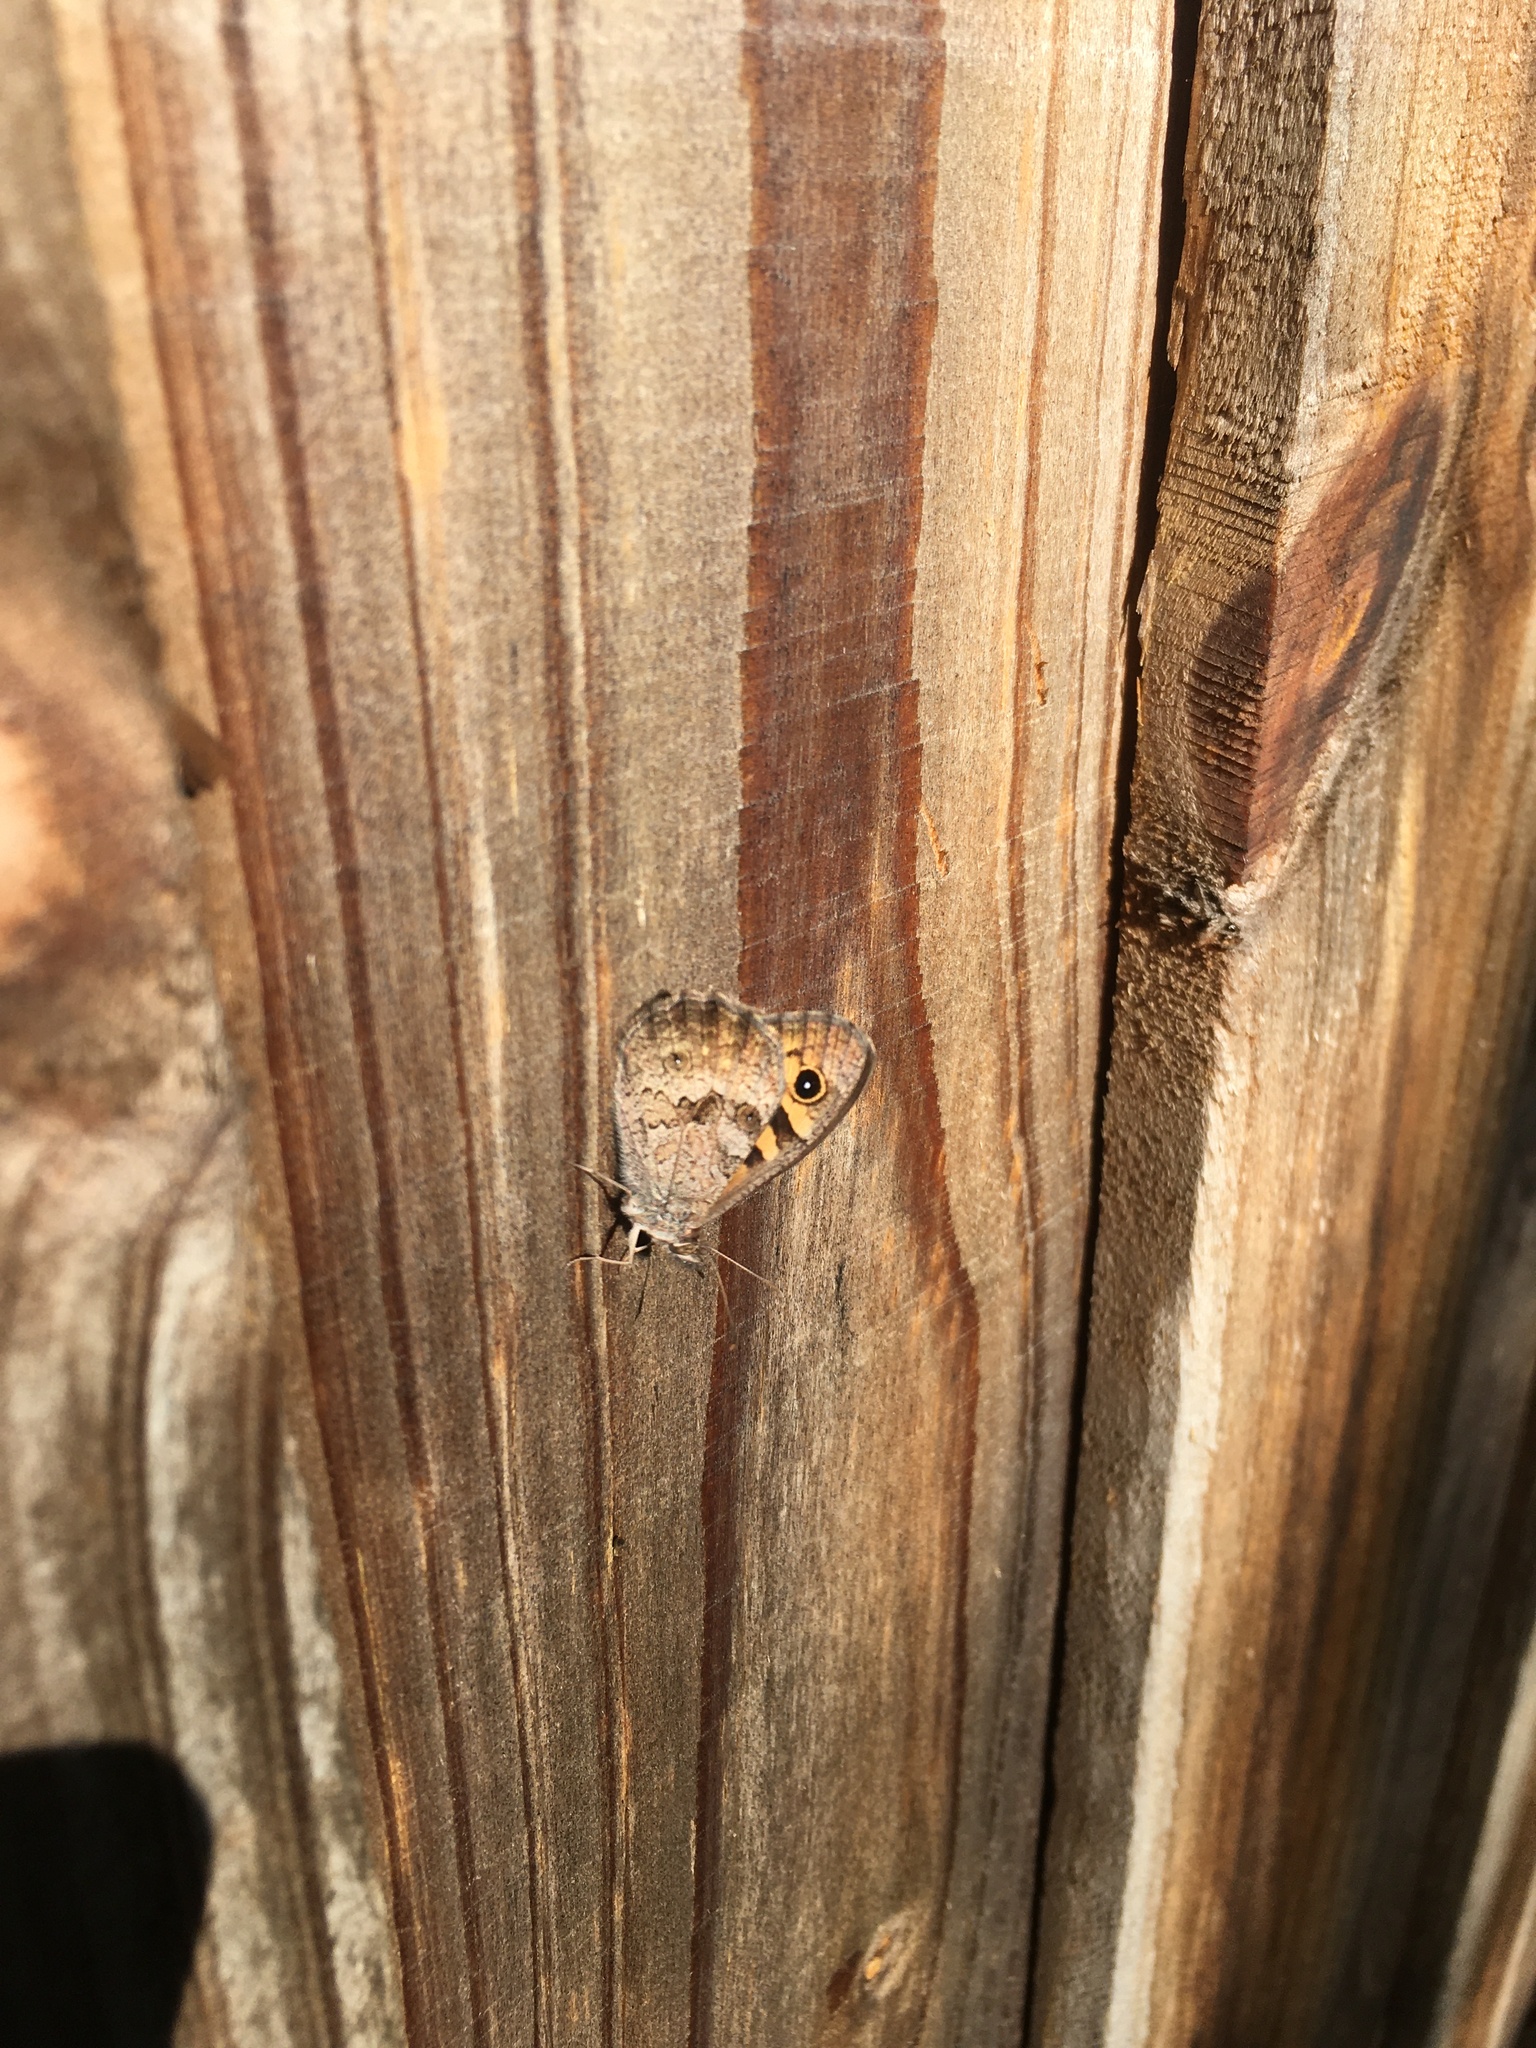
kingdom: Animalia
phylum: Arthropoda
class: Insecta
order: Lepidoptera
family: Nymphalidae
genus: Geitoneura
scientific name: Geitoneura klugii
